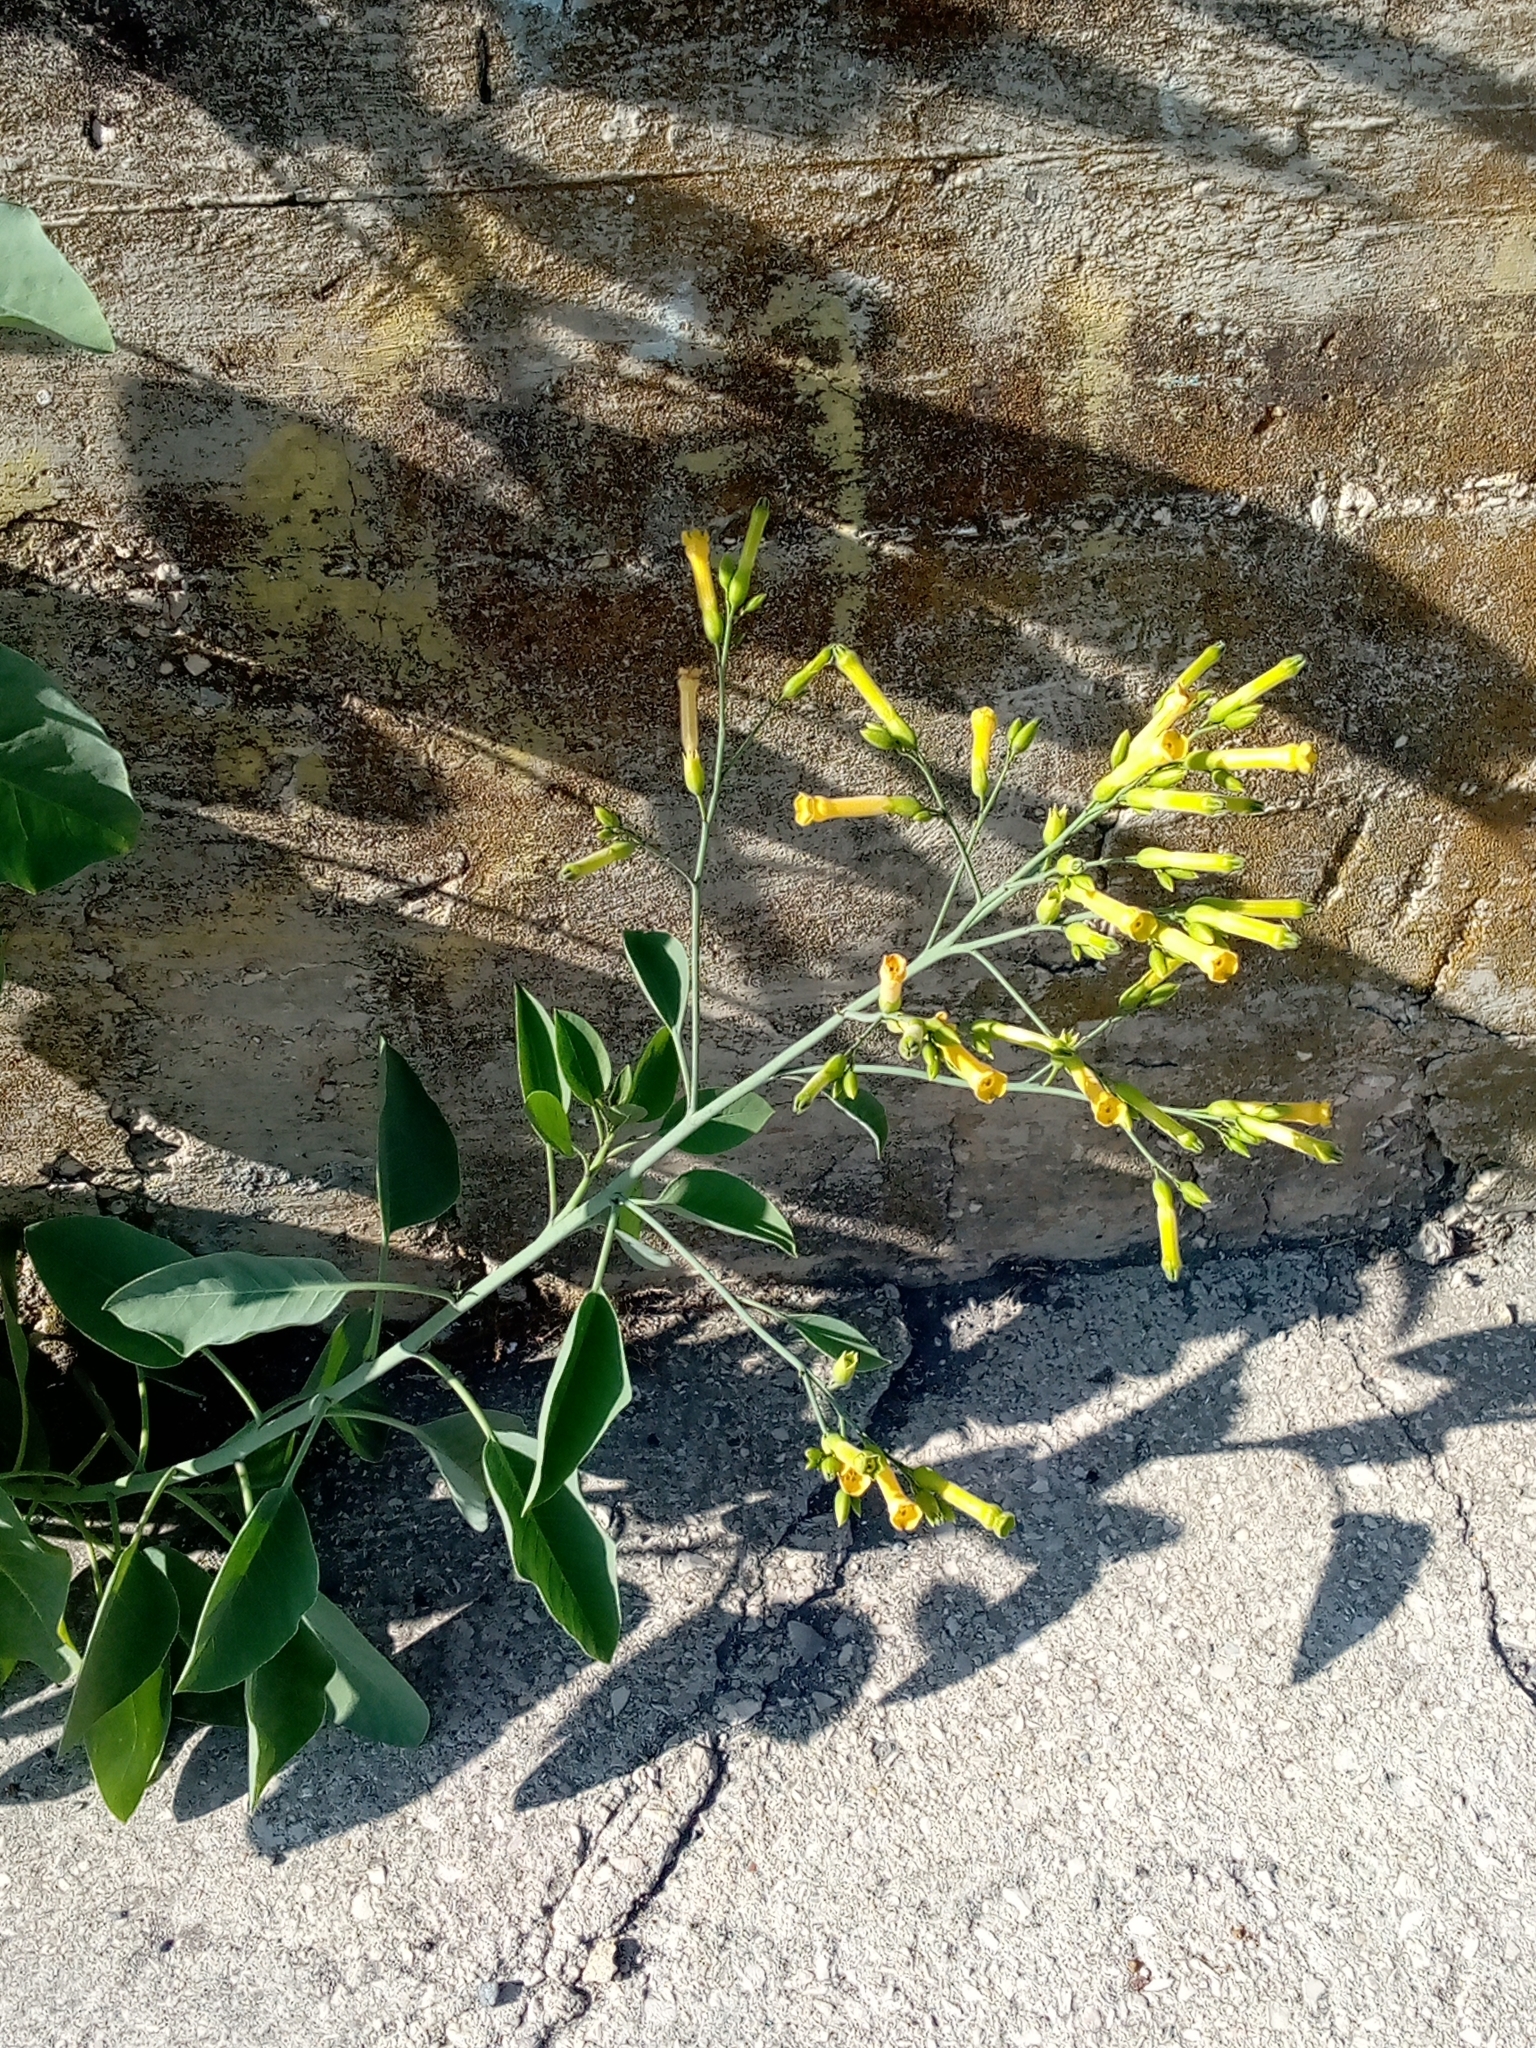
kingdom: Plantae
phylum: Tracheophyta
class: Magnoliopsida
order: Solanales
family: Solanaceae
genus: Nicotiana
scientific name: Nicotiana glauca
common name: Tree tobacco
